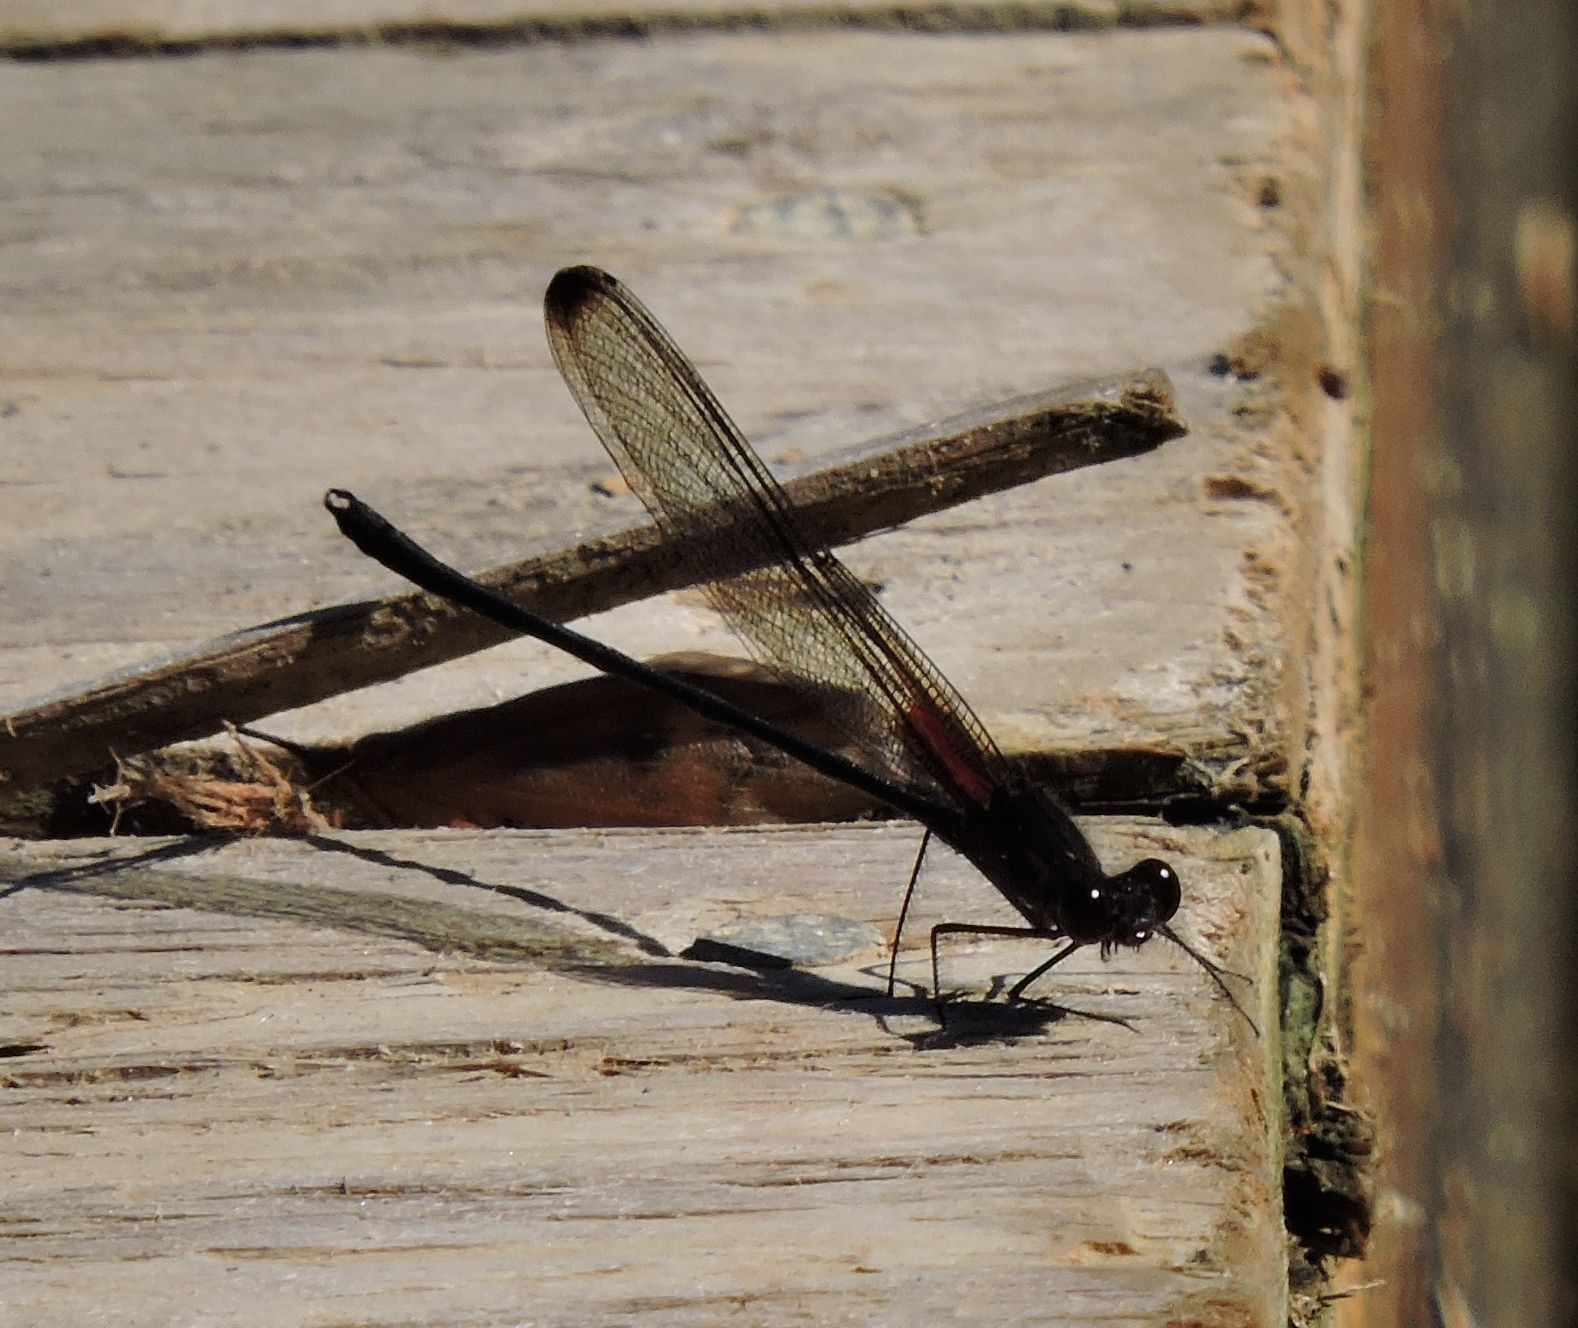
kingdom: Animalia
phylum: Arthropoda
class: Insecta
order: Odonata
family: Calopterygidae
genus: Hetaerina
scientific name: Hetaerina titia
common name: Smoky rubyspot
